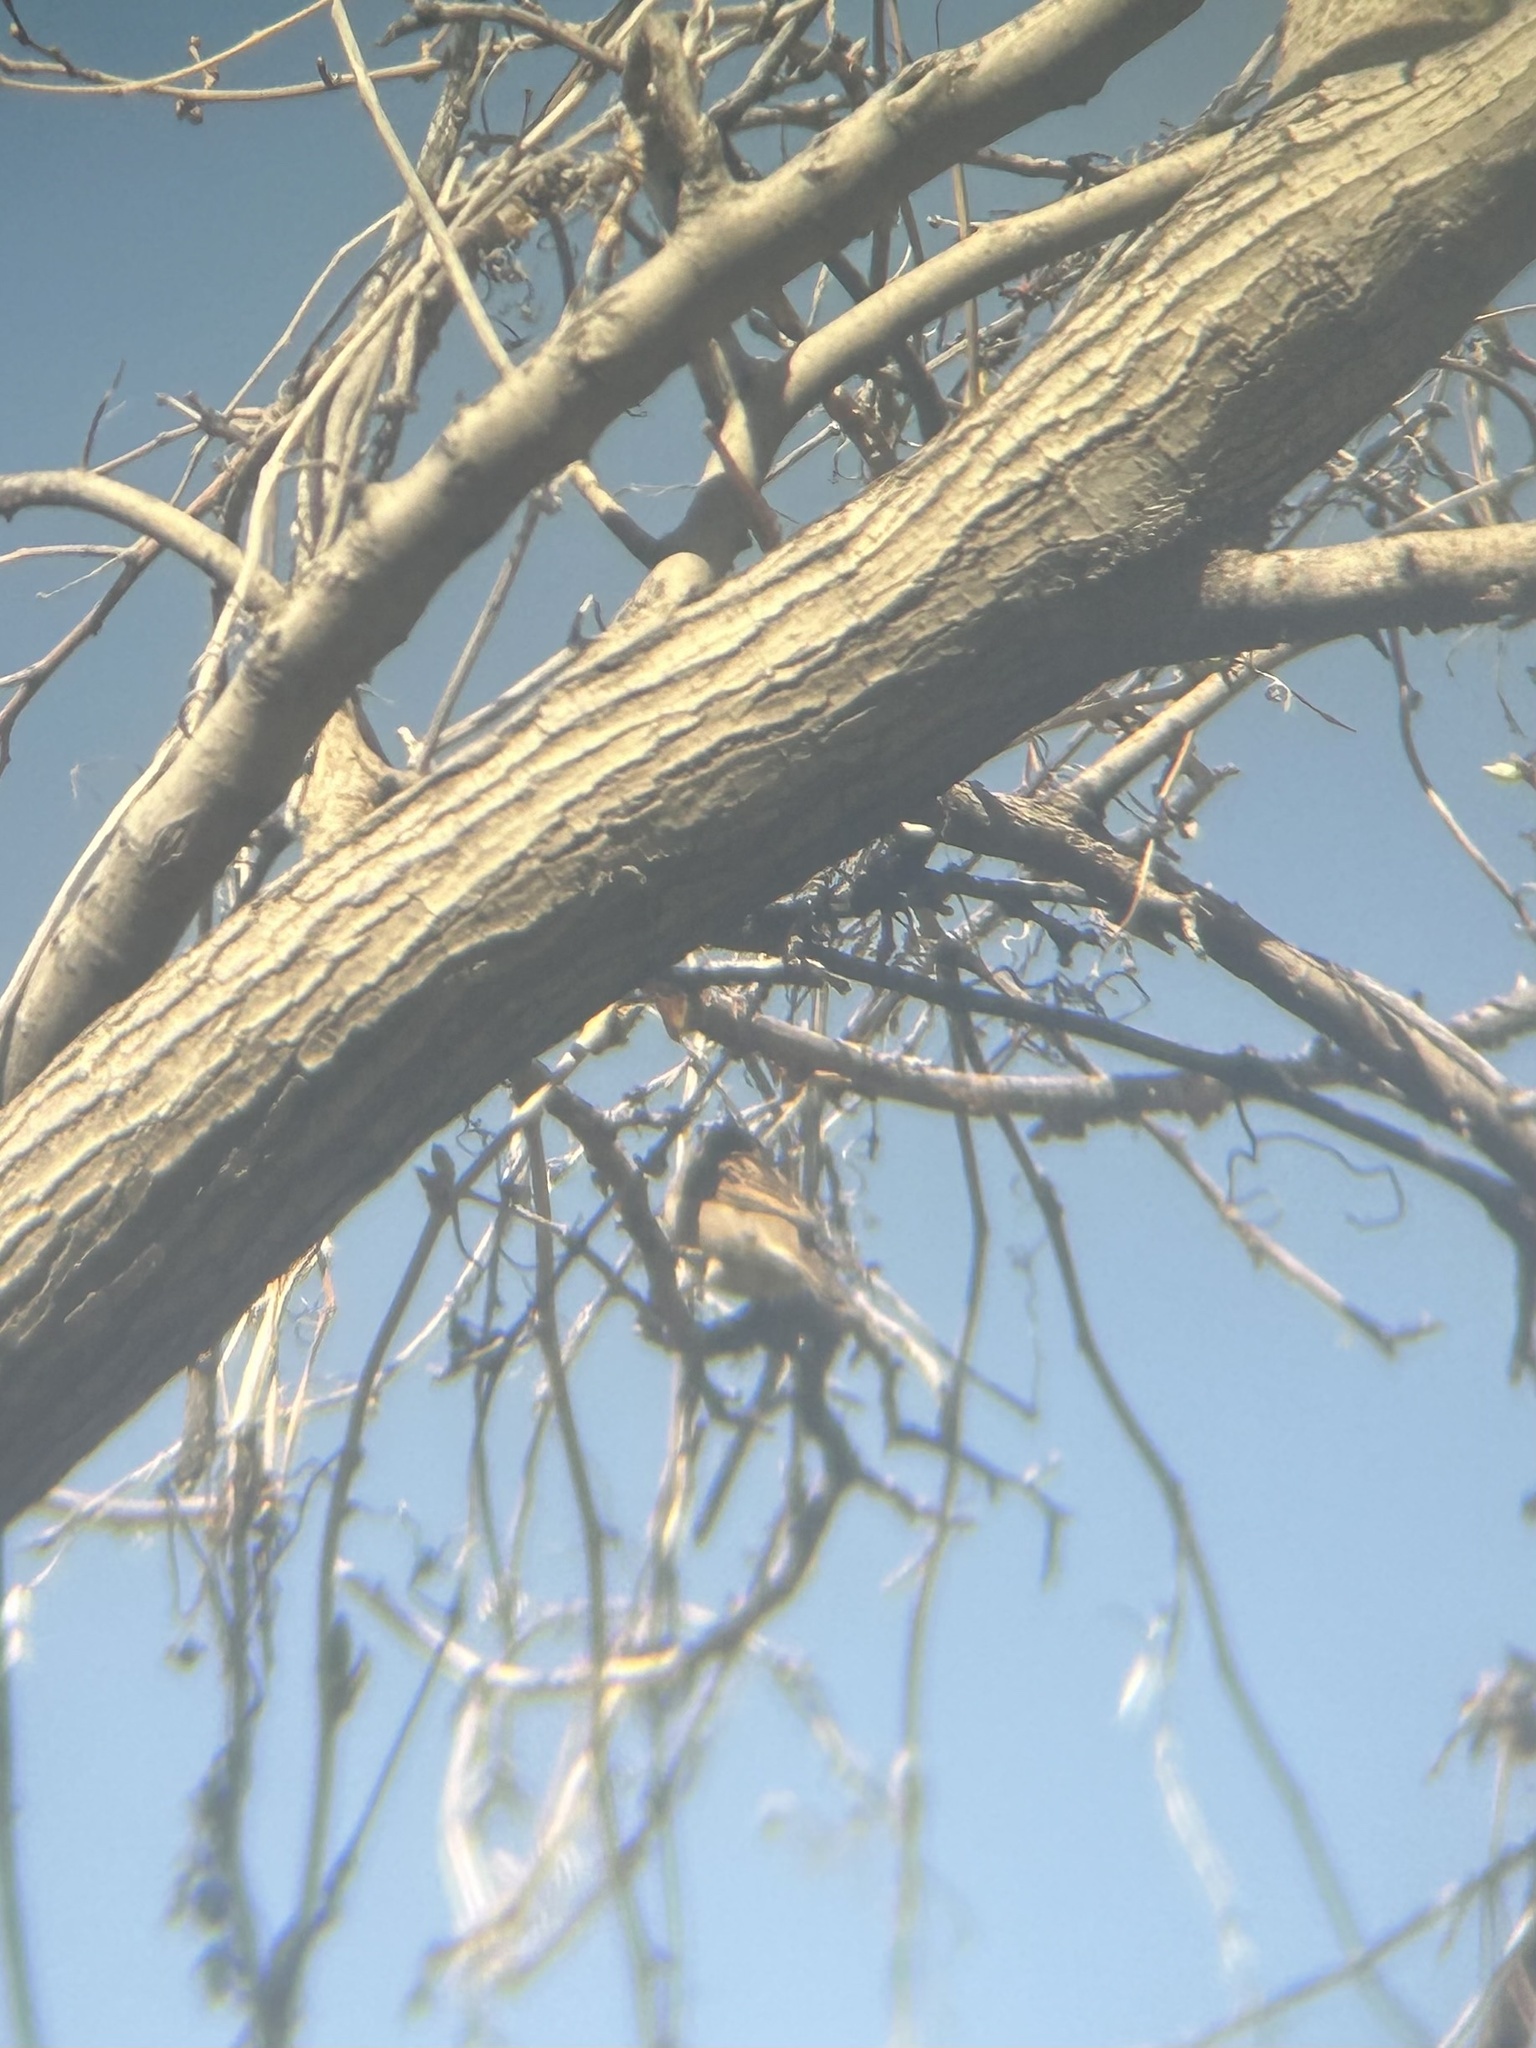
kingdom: Animalia
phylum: Chordata
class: Aves
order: Passeriformes
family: Passeridae
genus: Passer
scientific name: Passer domesticus
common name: House sparrow
